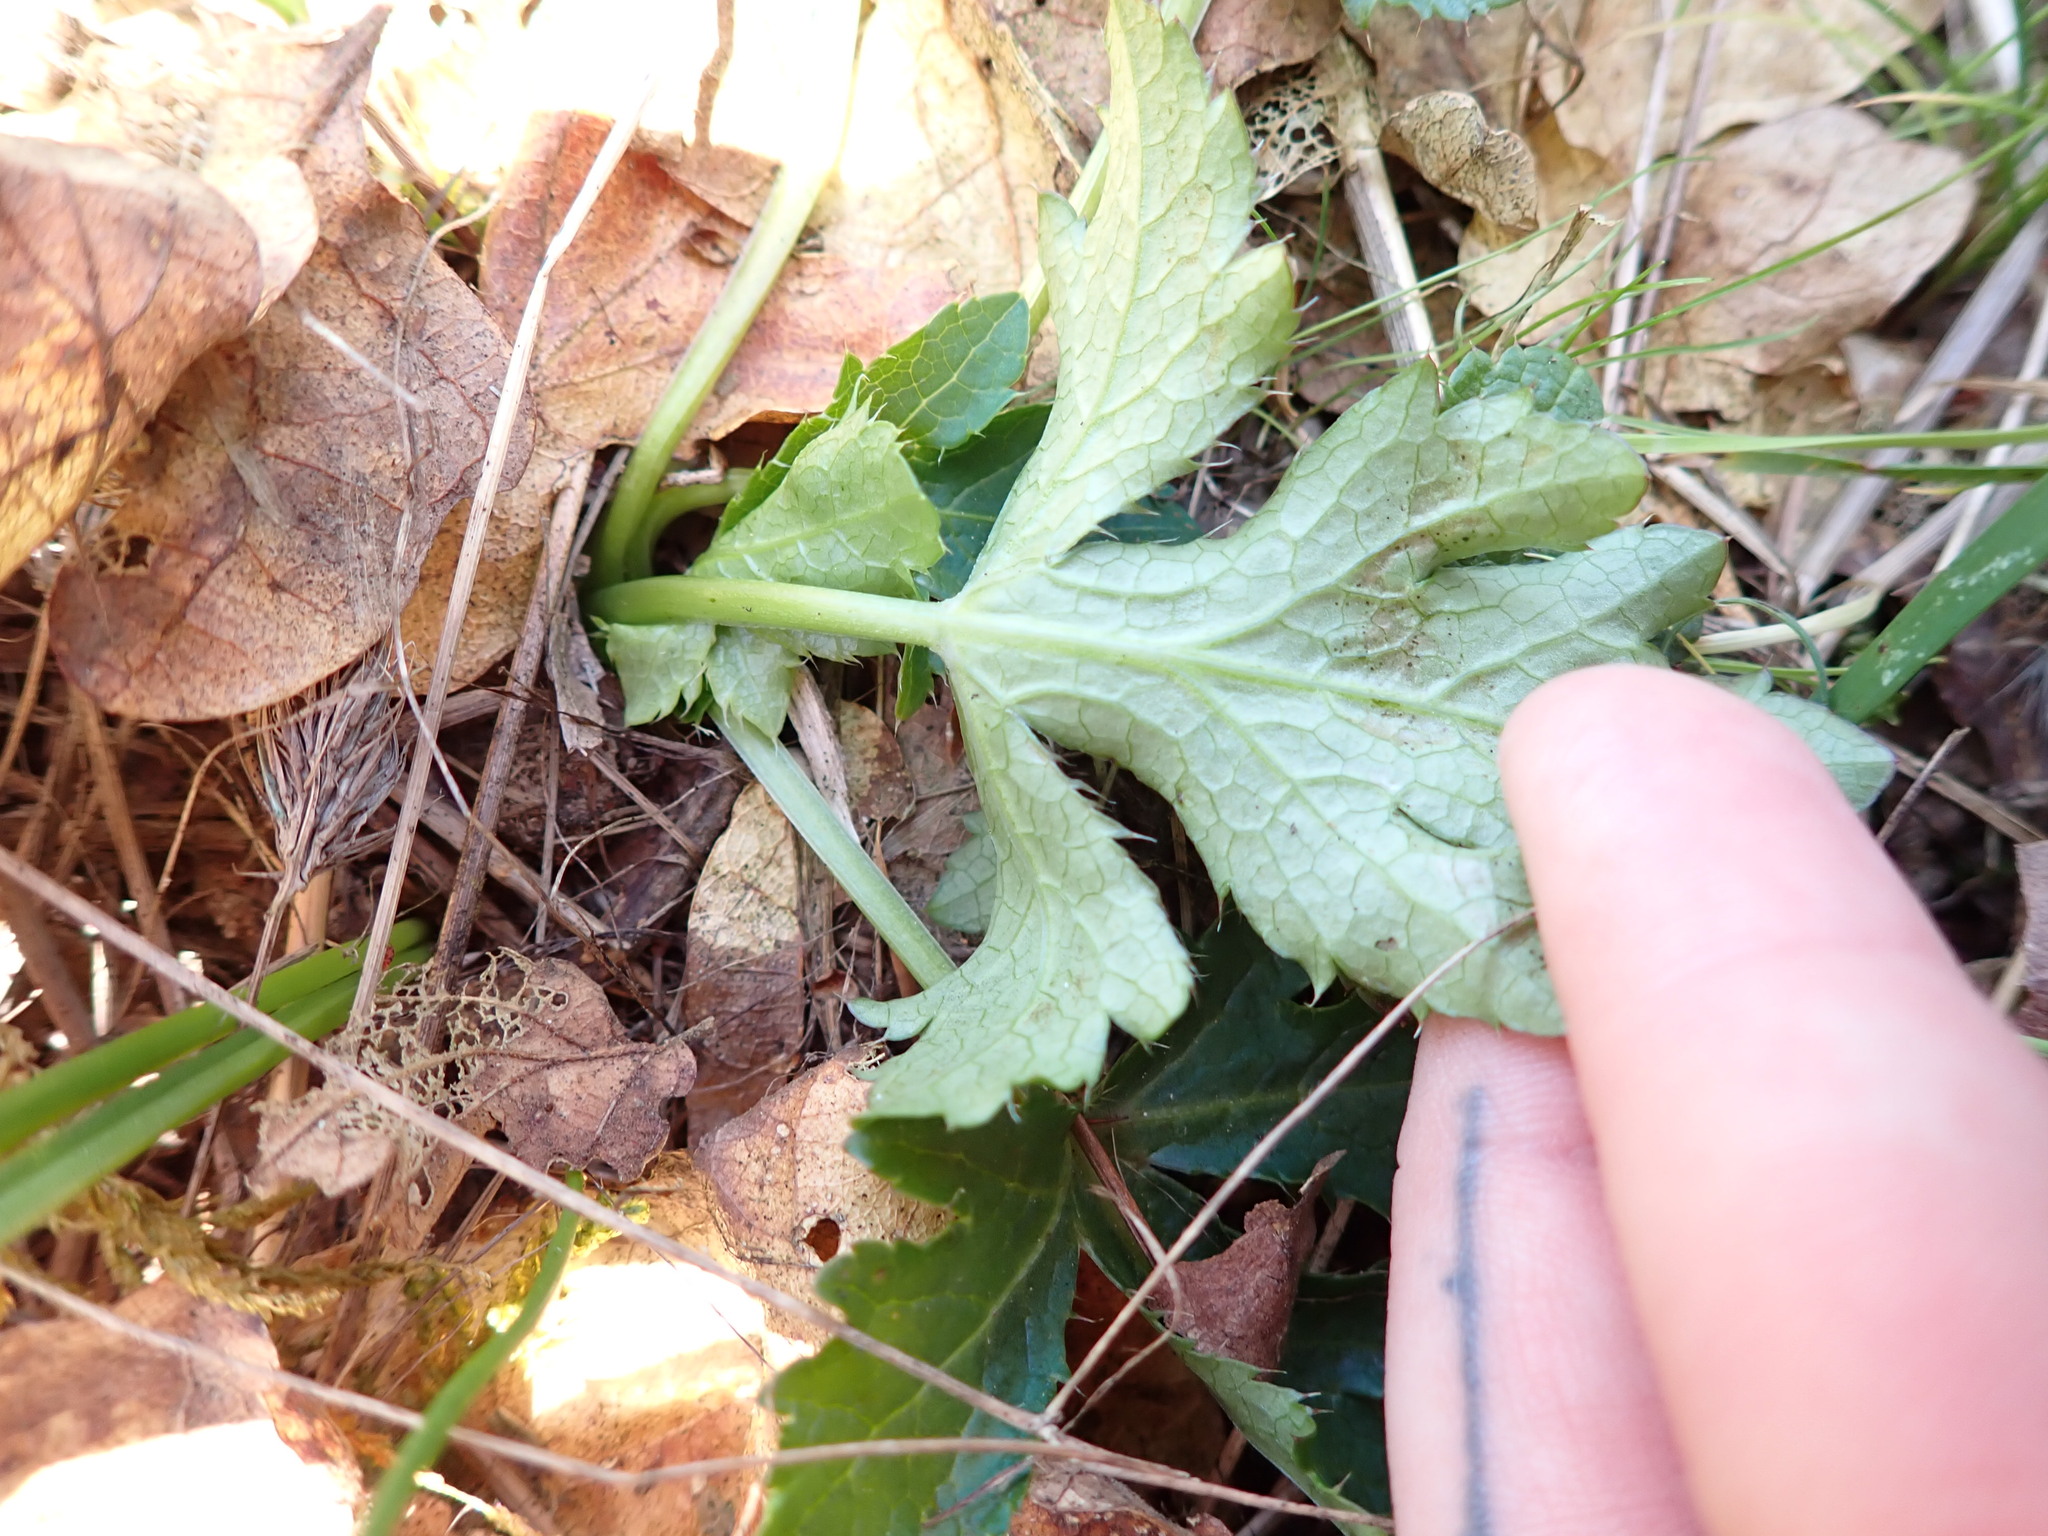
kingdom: Plantae
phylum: Tracheophyta
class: Magnoliopsida
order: Apiales
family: Apiaceae
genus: Sanicula
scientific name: Sanicula crassicaulis
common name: Western snakeroot
